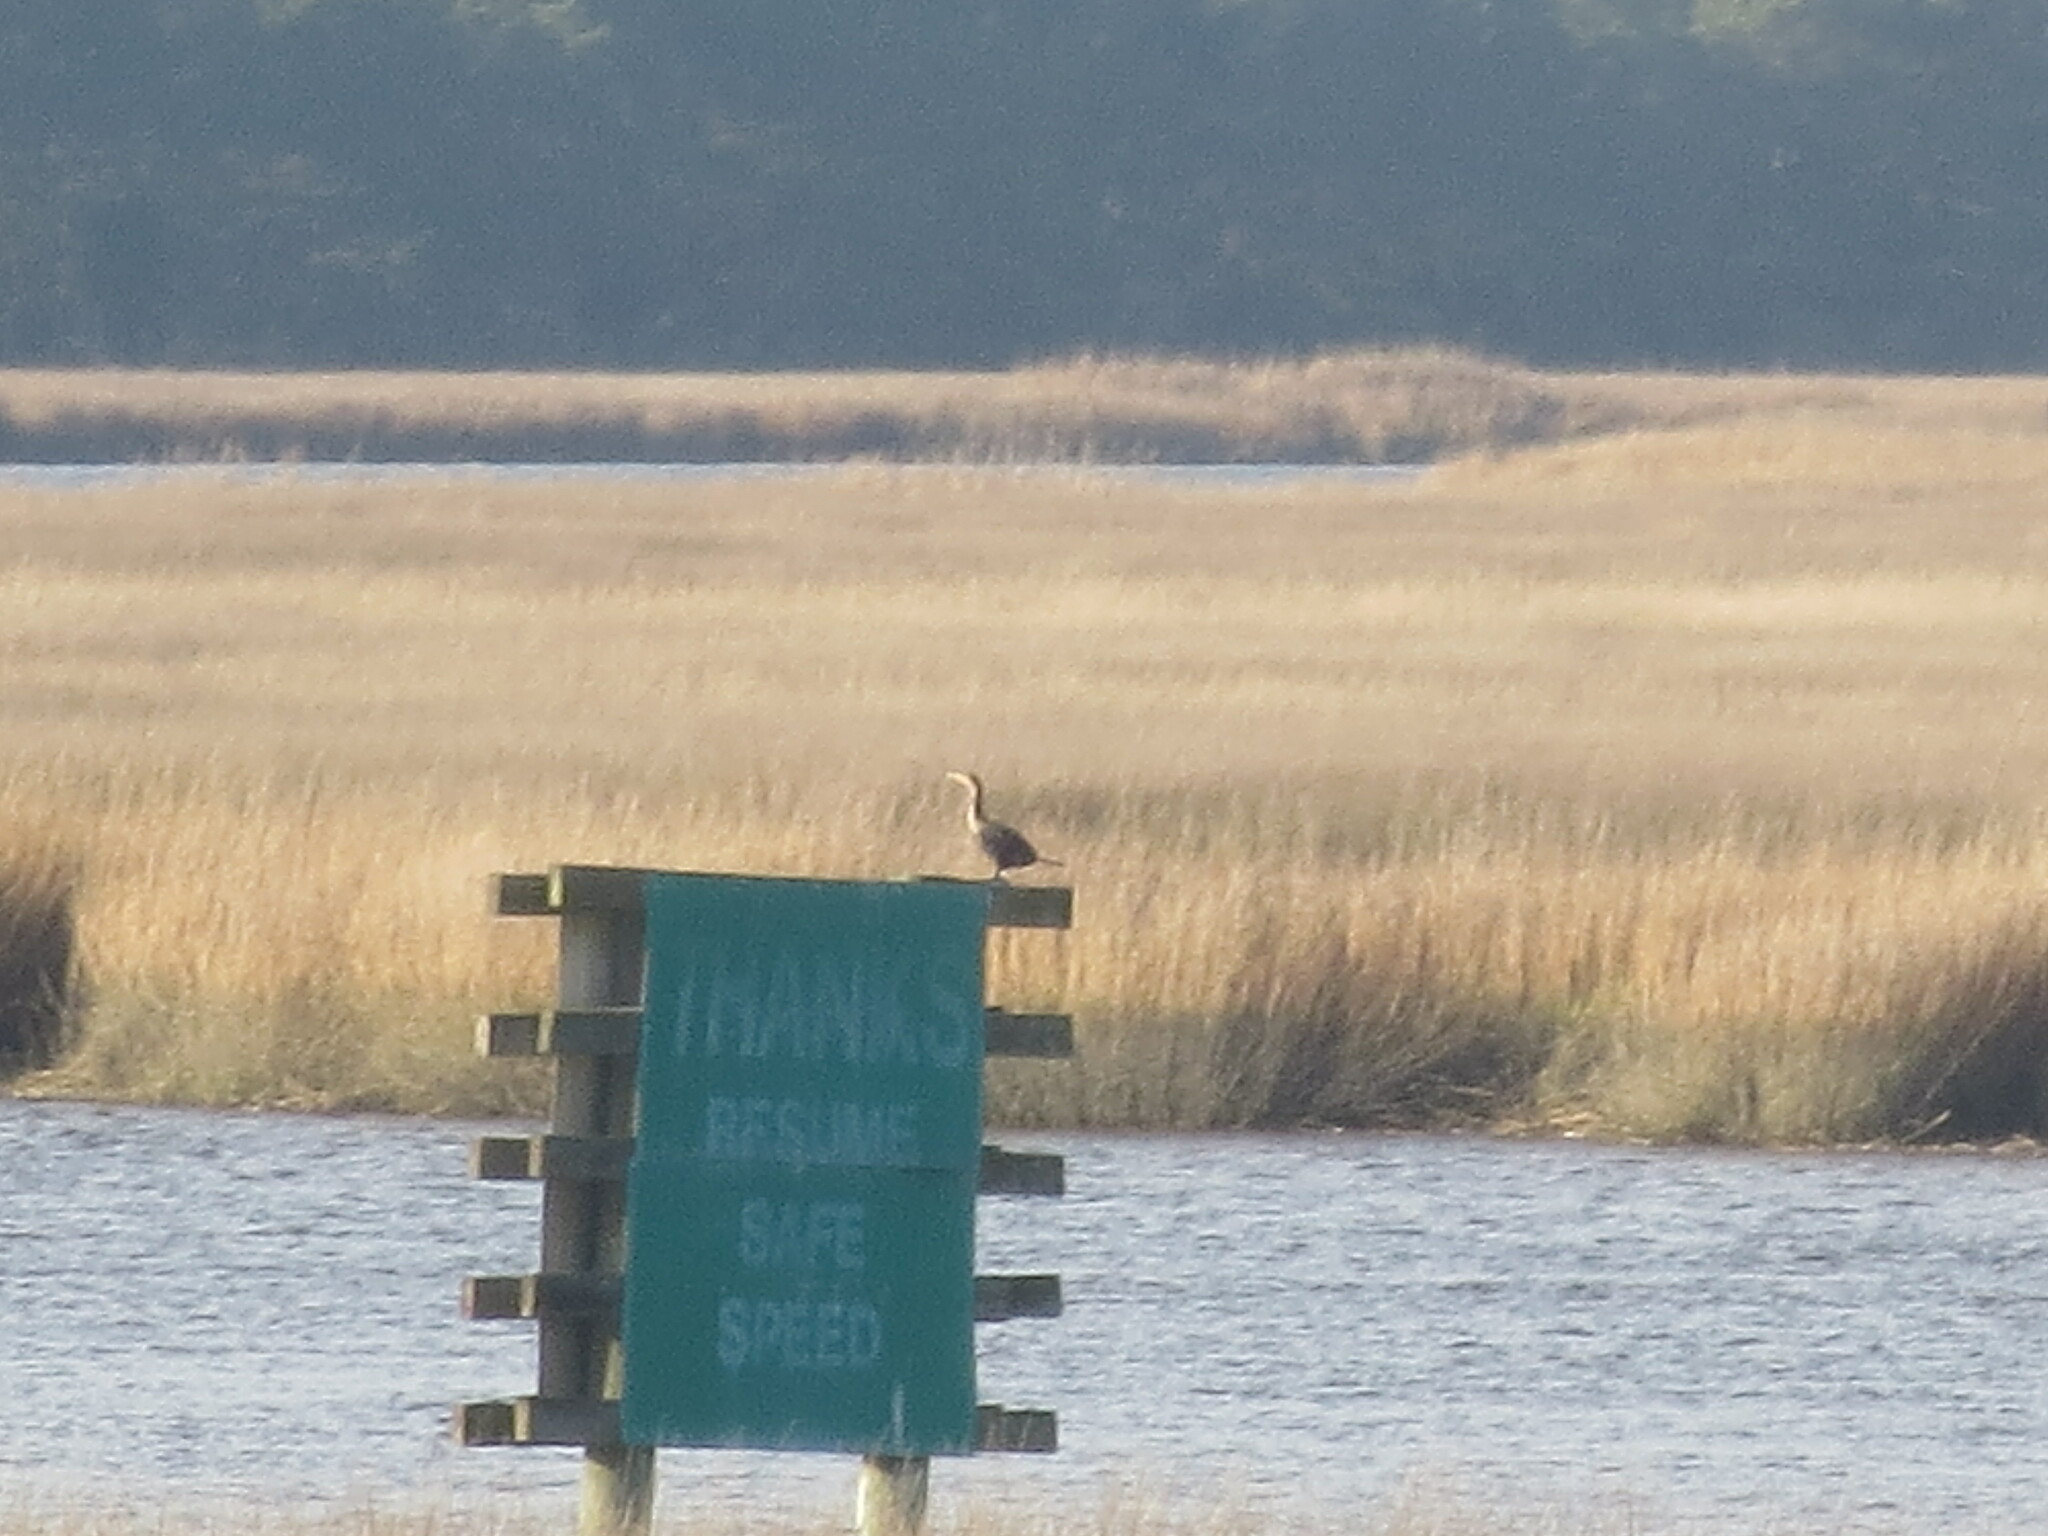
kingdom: Animalia
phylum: Chordata
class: Aves
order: Suliformes
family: Phalacrocoracidae
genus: Phalacrocorax
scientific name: Phalacrocorax auritus
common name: Double-crested cormorant
